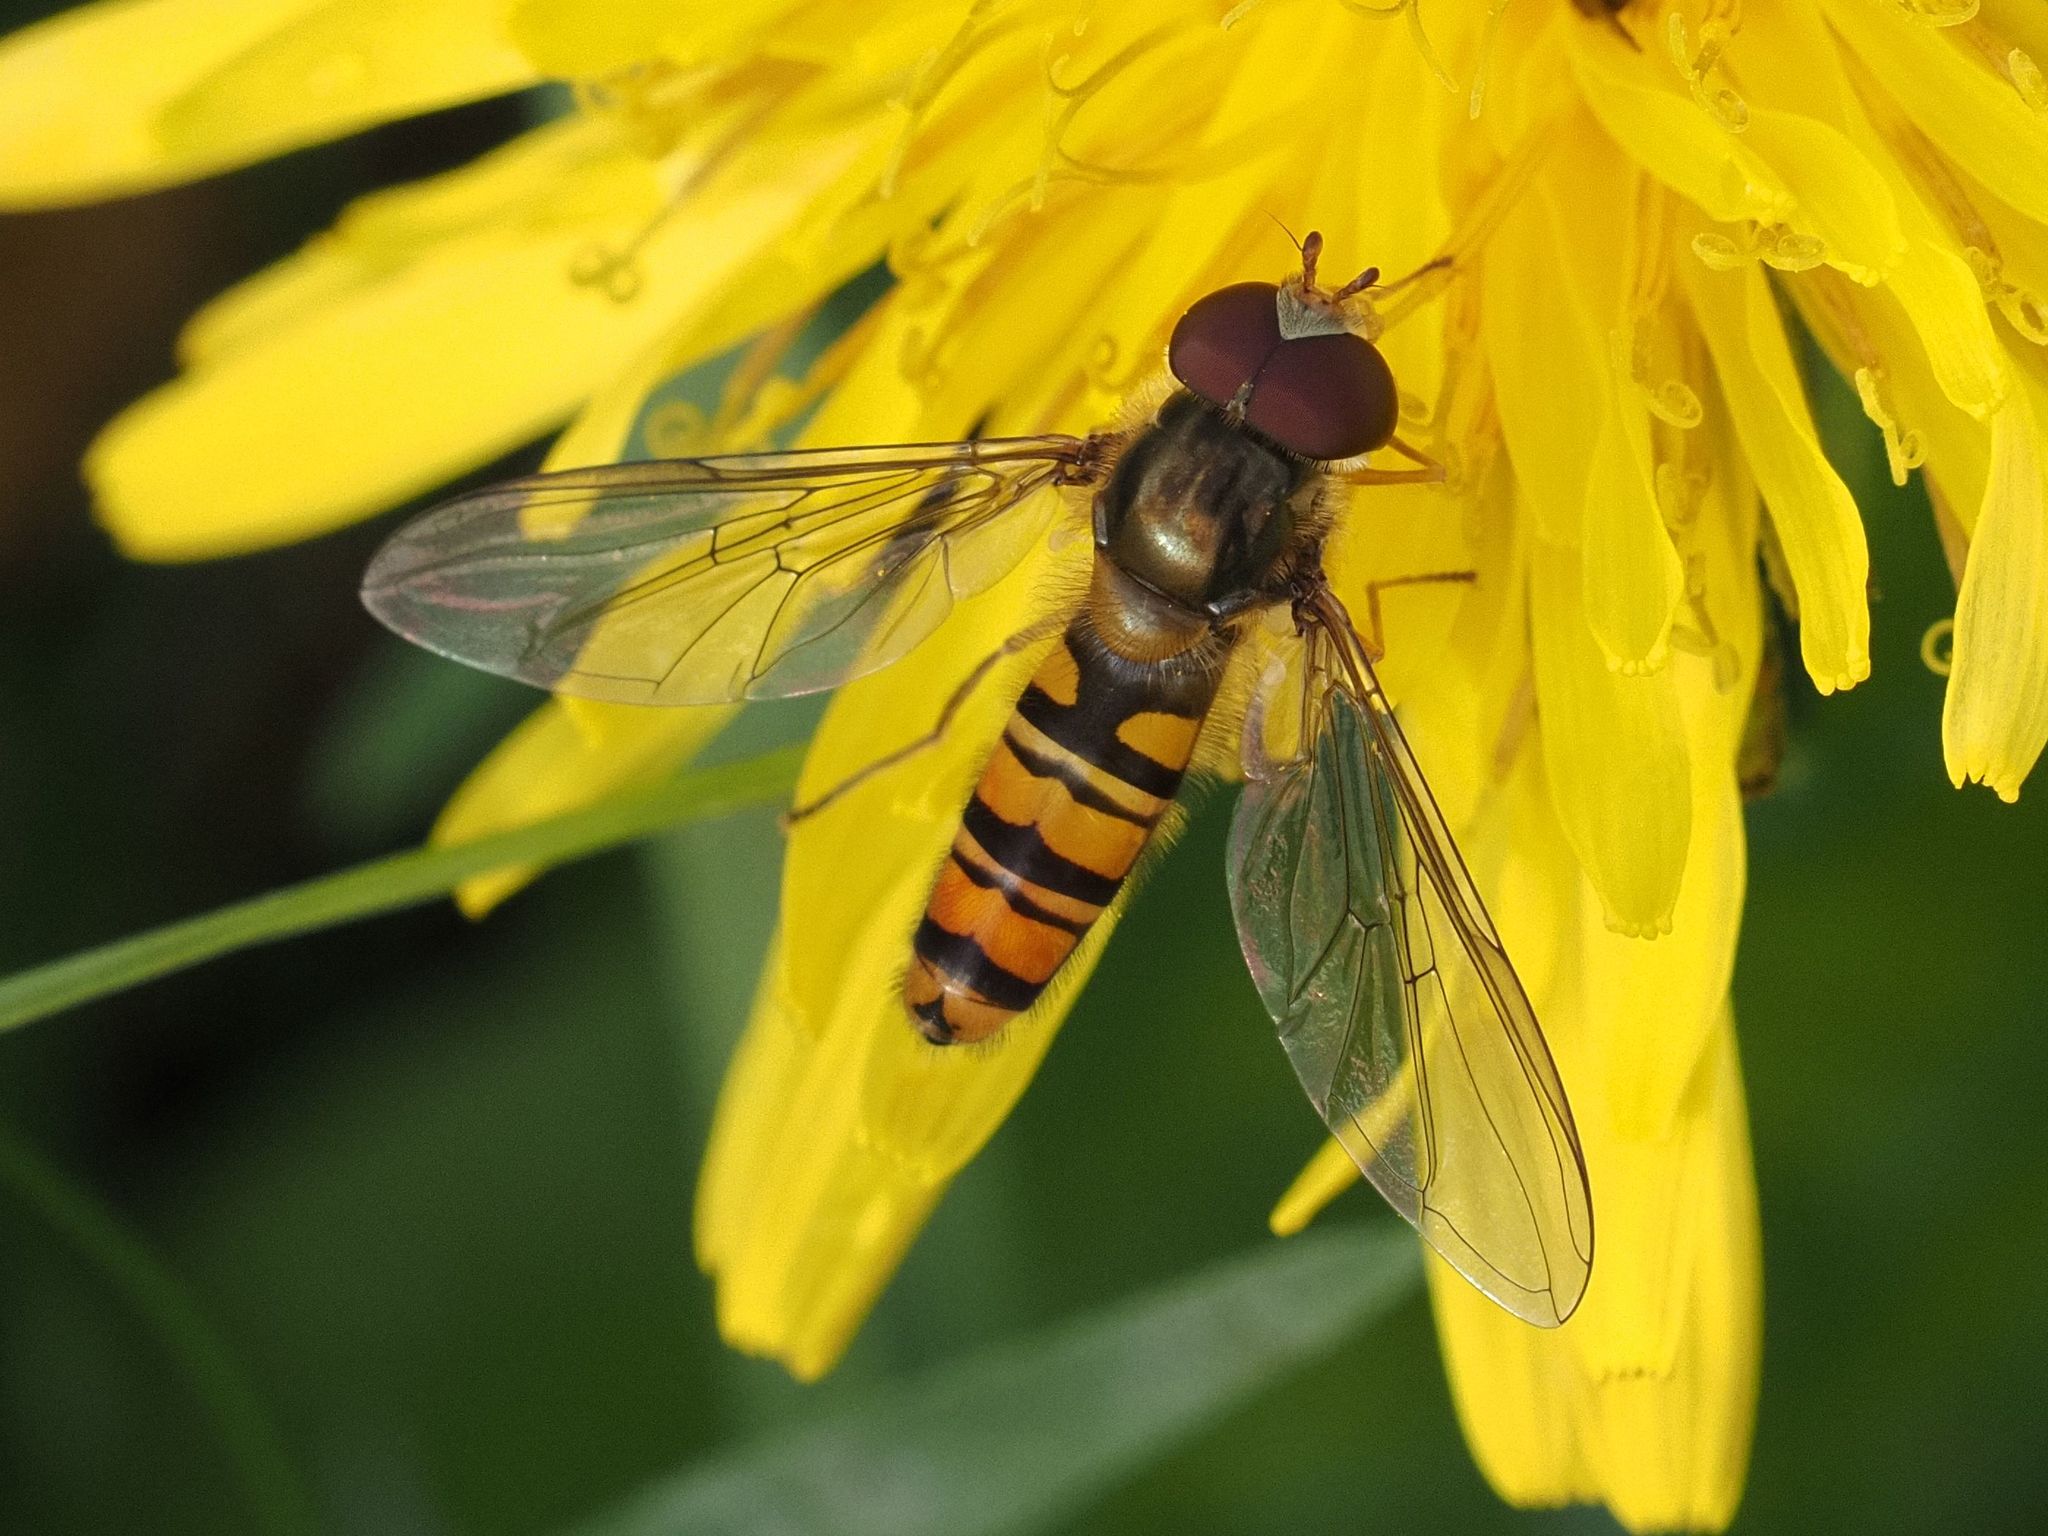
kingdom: Animalia
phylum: Arthropoda
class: Insecta
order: Diptera
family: Syrphidae
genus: Episyrphus
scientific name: Episyrphus balteatus
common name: Marmalade hoverfly
